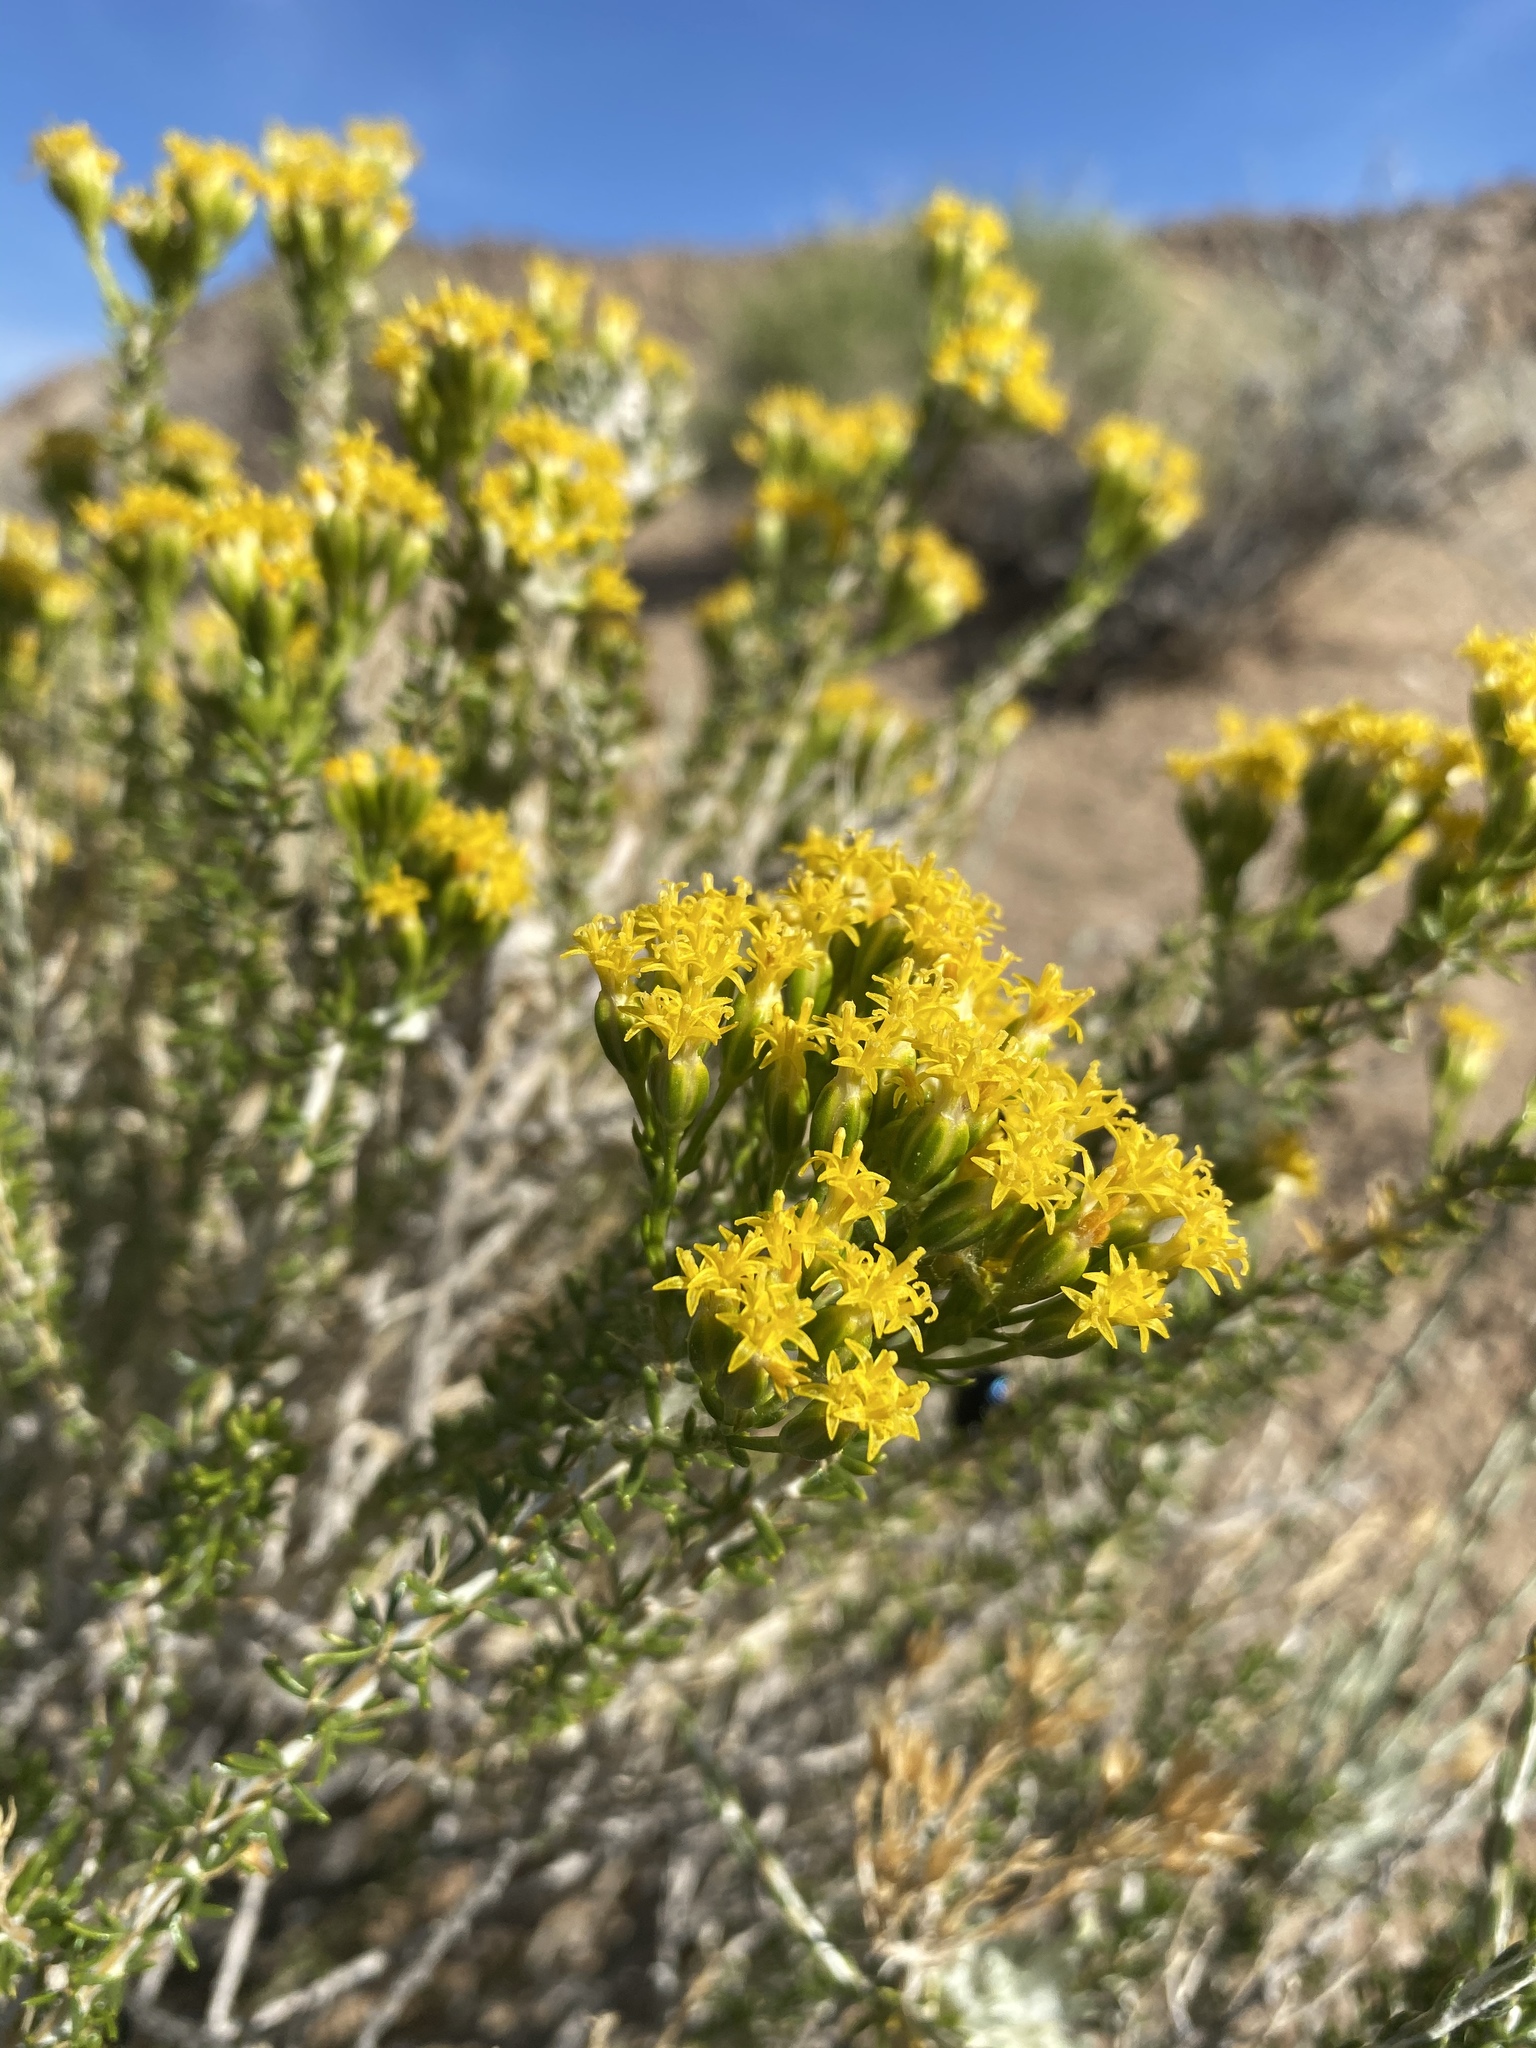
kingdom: Plantae
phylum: Tracheophyta
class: Magnoliopsida
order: Asterales
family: Asteraceae
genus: Tetradymia
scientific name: Tetradymia glabrata
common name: Smooth tetradymia
